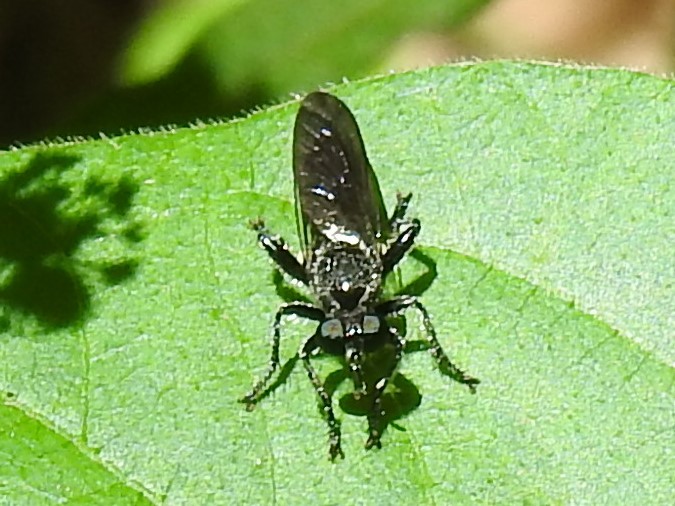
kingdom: Animalia
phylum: Arthropoda
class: Insecta
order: Diptera
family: Asilidae
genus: Laphria
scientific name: Laphria
